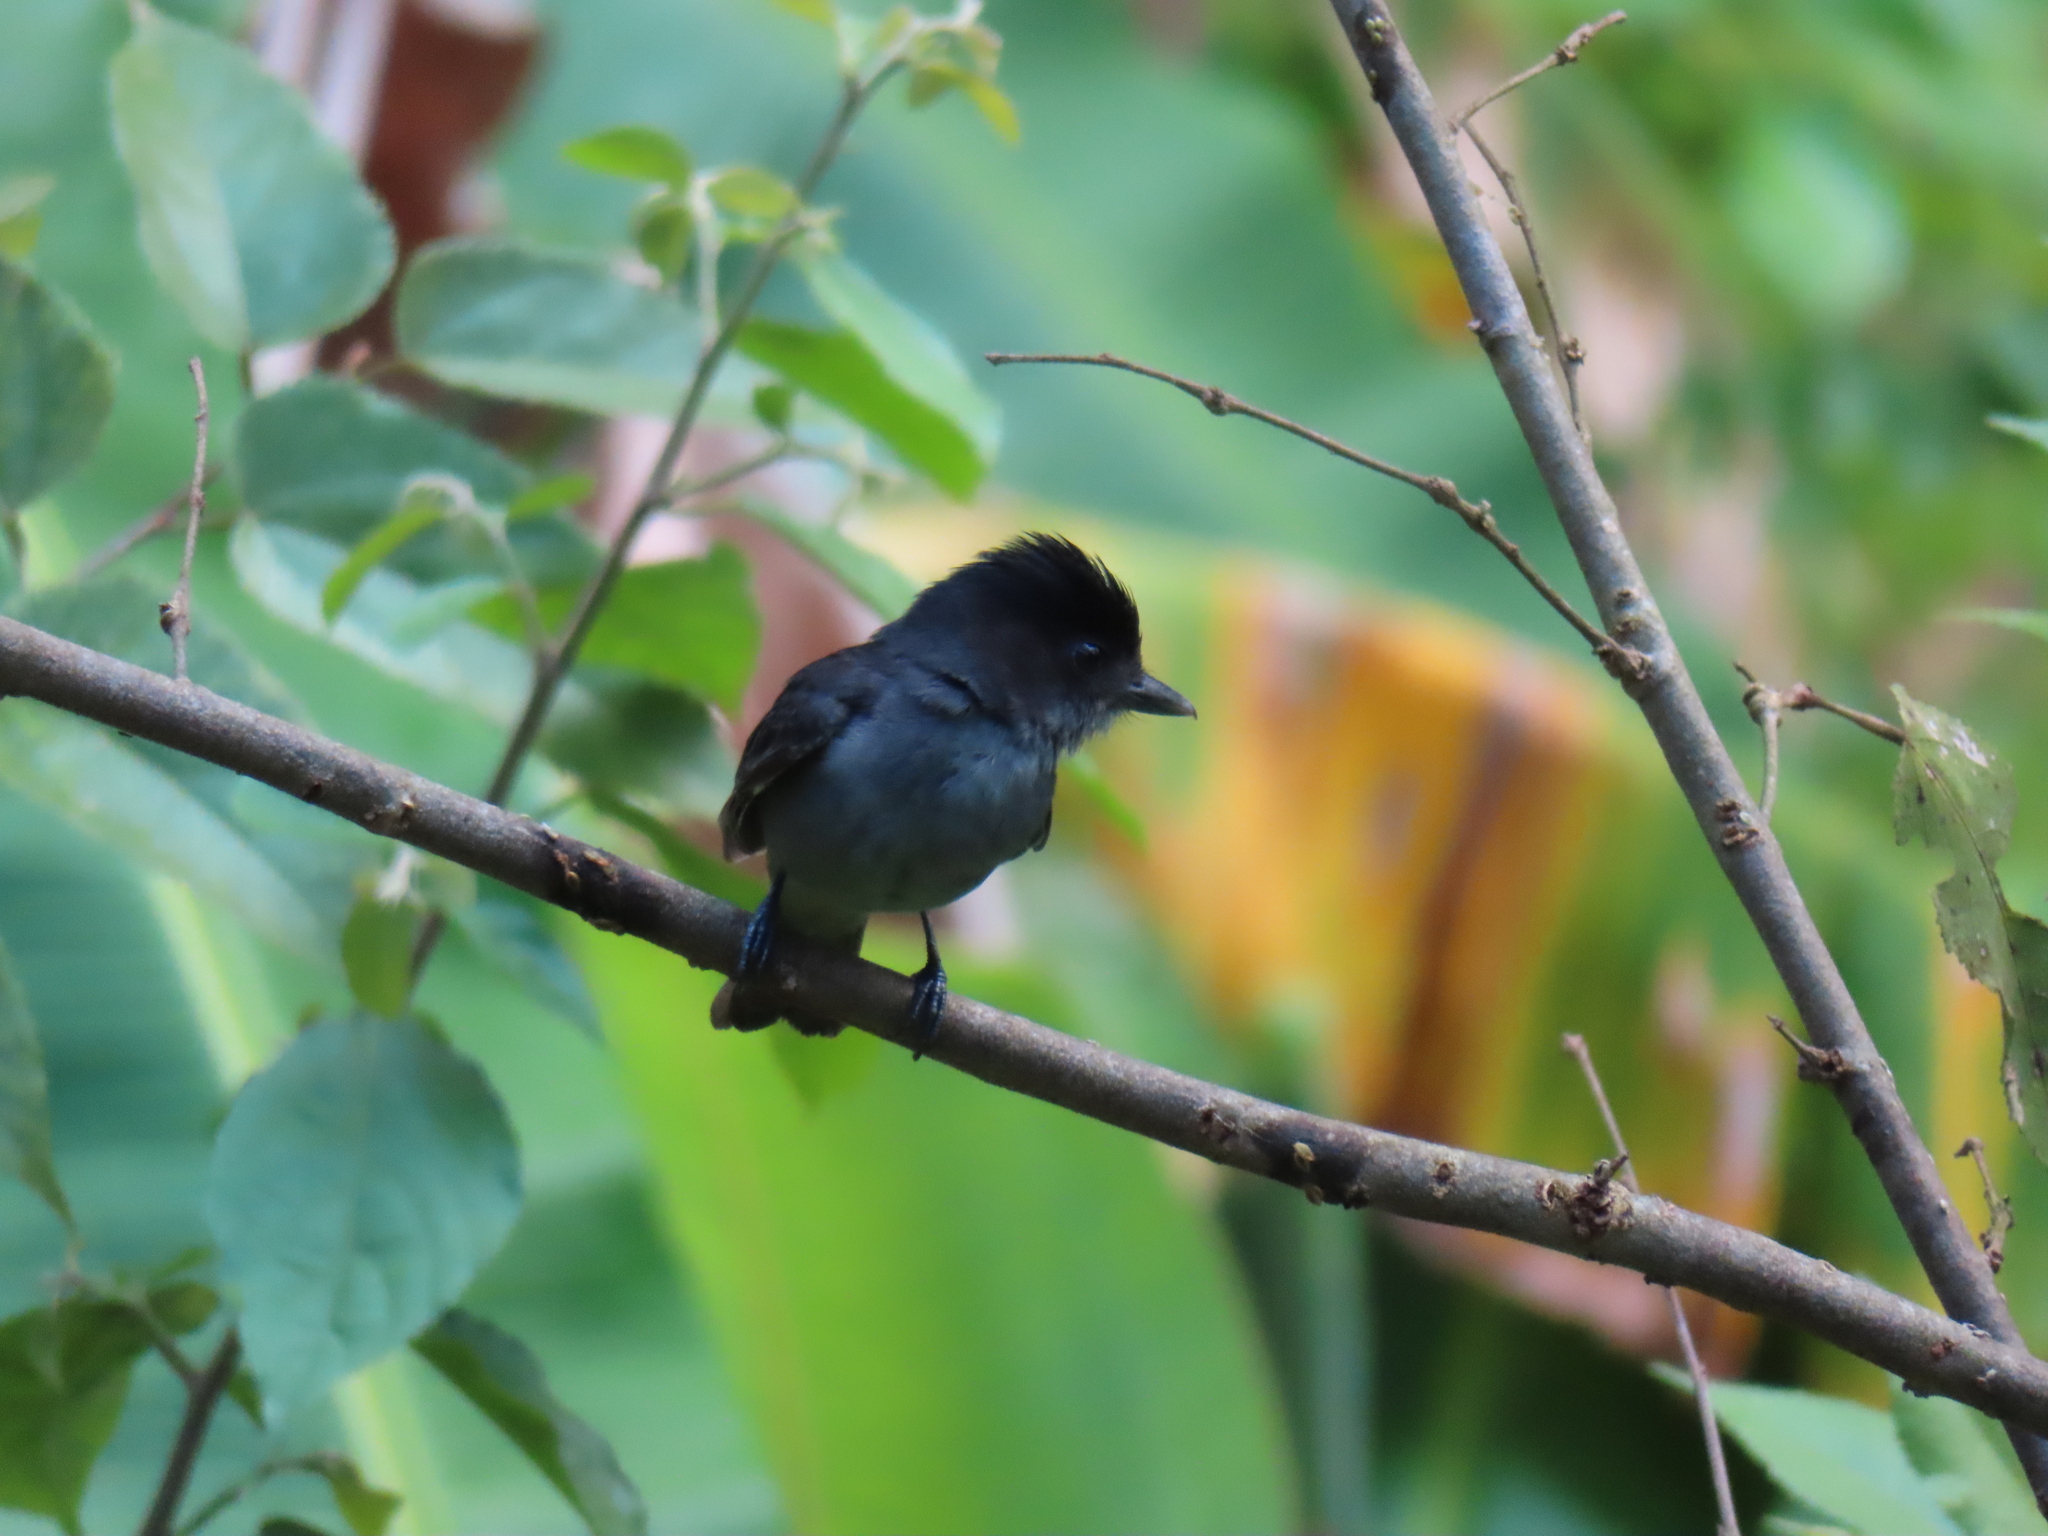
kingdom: Animalia
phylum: Chordata
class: Aves
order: Passeriformes
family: Cotingidae
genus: Pachyramphus
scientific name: Pachyramphus aglaiae
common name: Rose-throated becard
